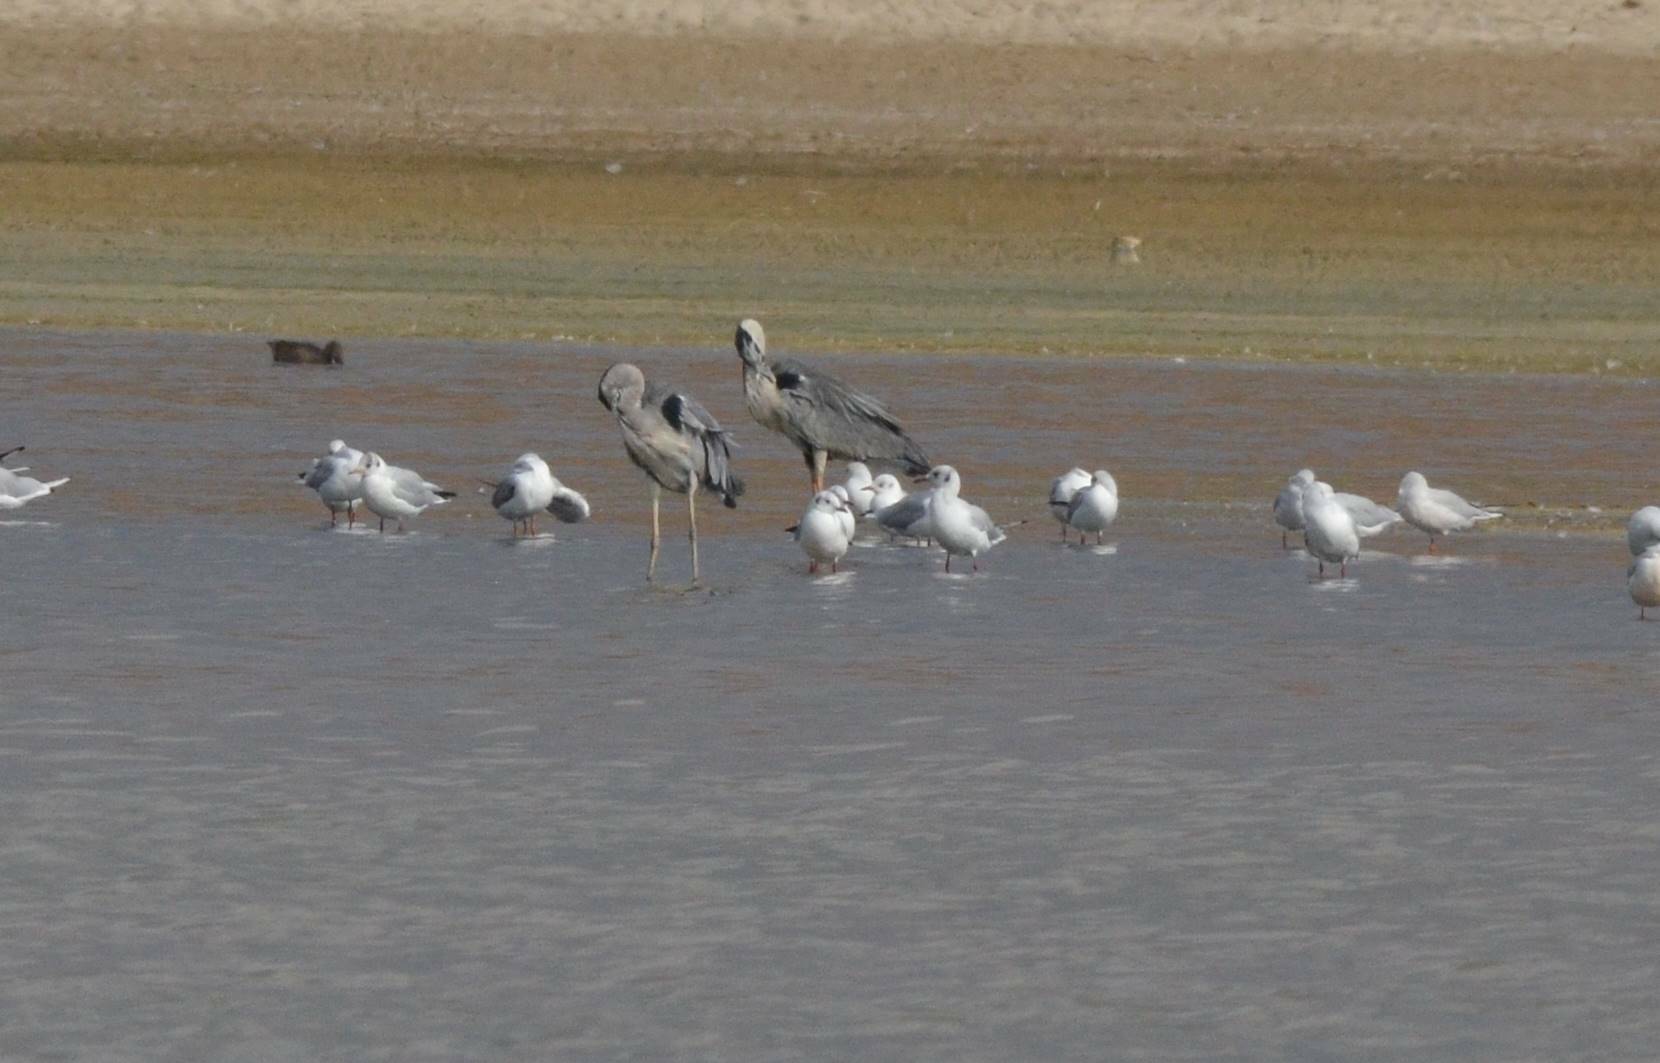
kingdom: Animalia
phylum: Chordata
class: Aves
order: Pelecaniformes
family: Ardeidae
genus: Ardea
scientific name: Ardea cinerea
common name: Grey heron
